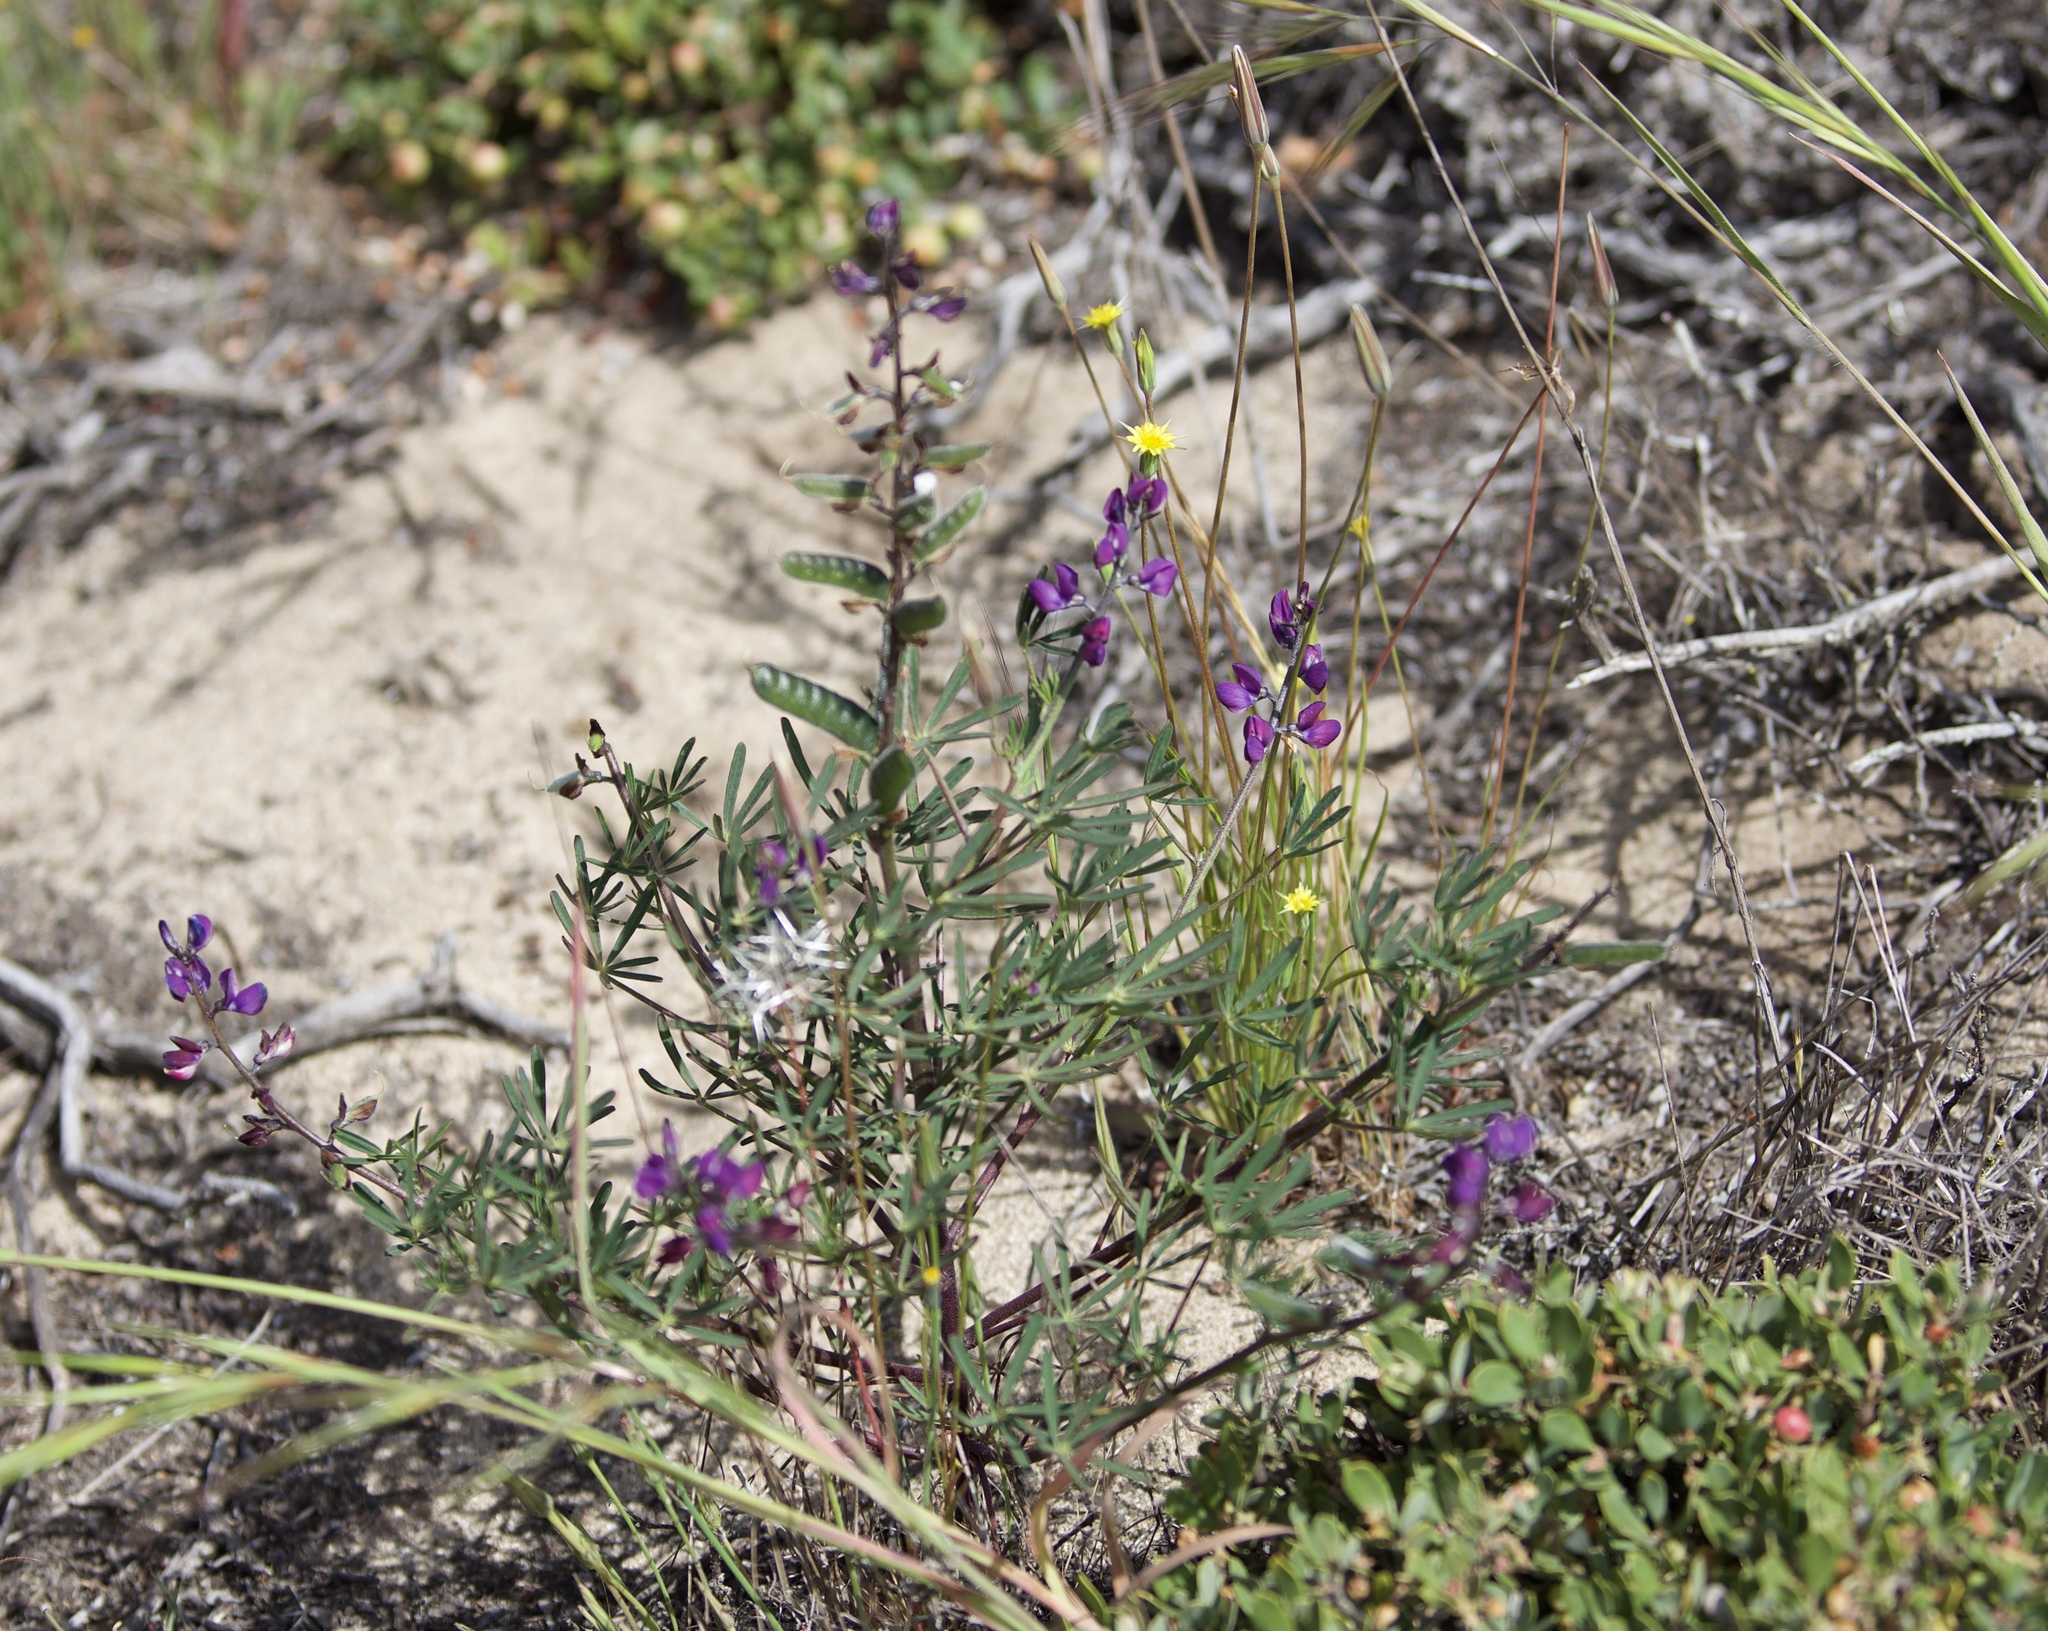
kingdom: Plantae
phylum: Tracheophyta
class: Magnoliopsida
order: Fabales
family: Fabaceae
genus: Lupinus
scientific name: Lupinus truncatus
